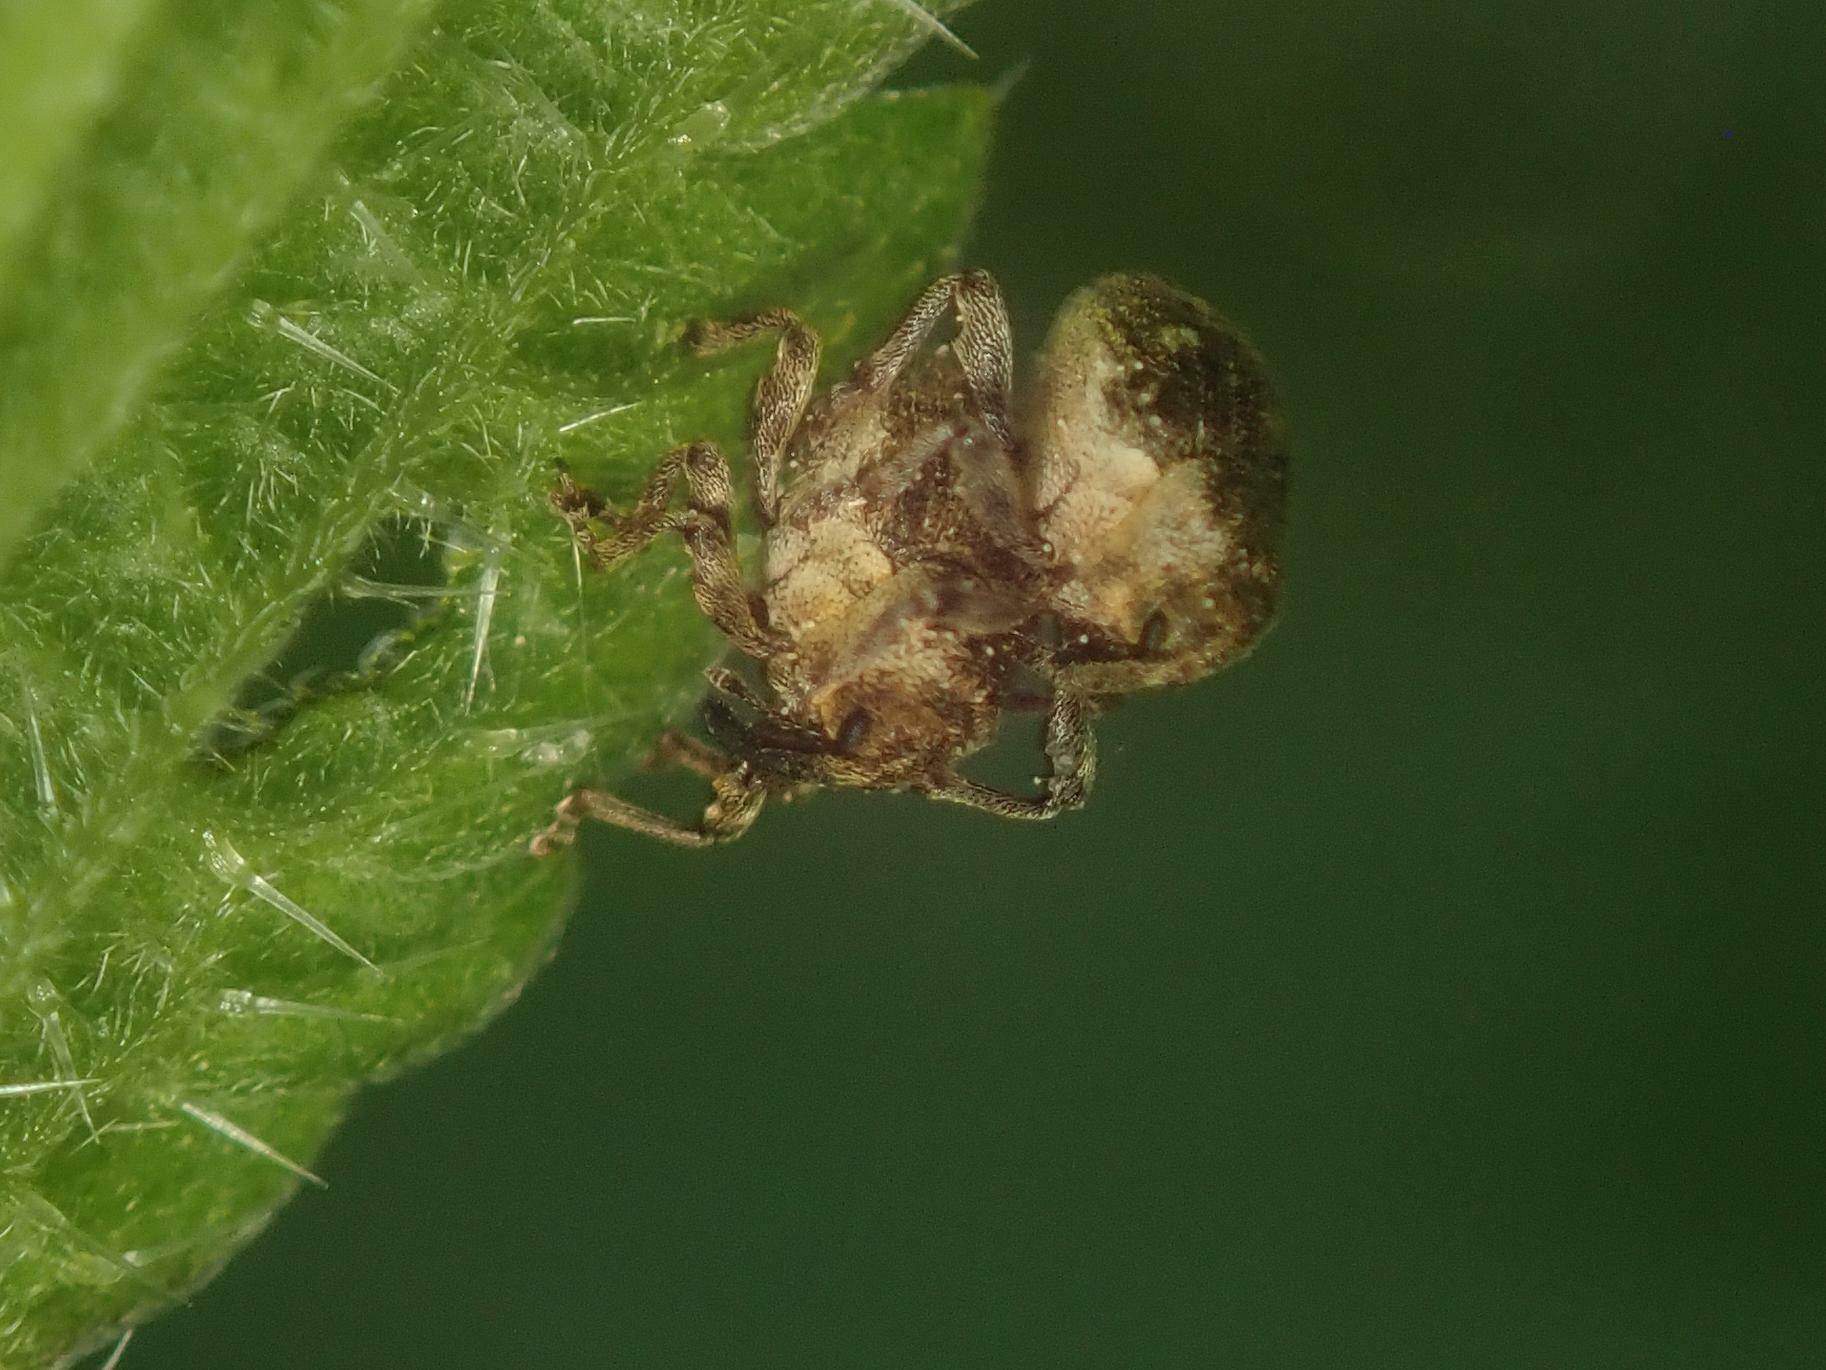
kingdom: Animalia
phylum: Arthropoda
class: Insecta
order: Coleoptera
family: Curculionidae
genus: Nedyus
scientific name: Nedyus quadrimaculatus
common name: Small nettle weevil
